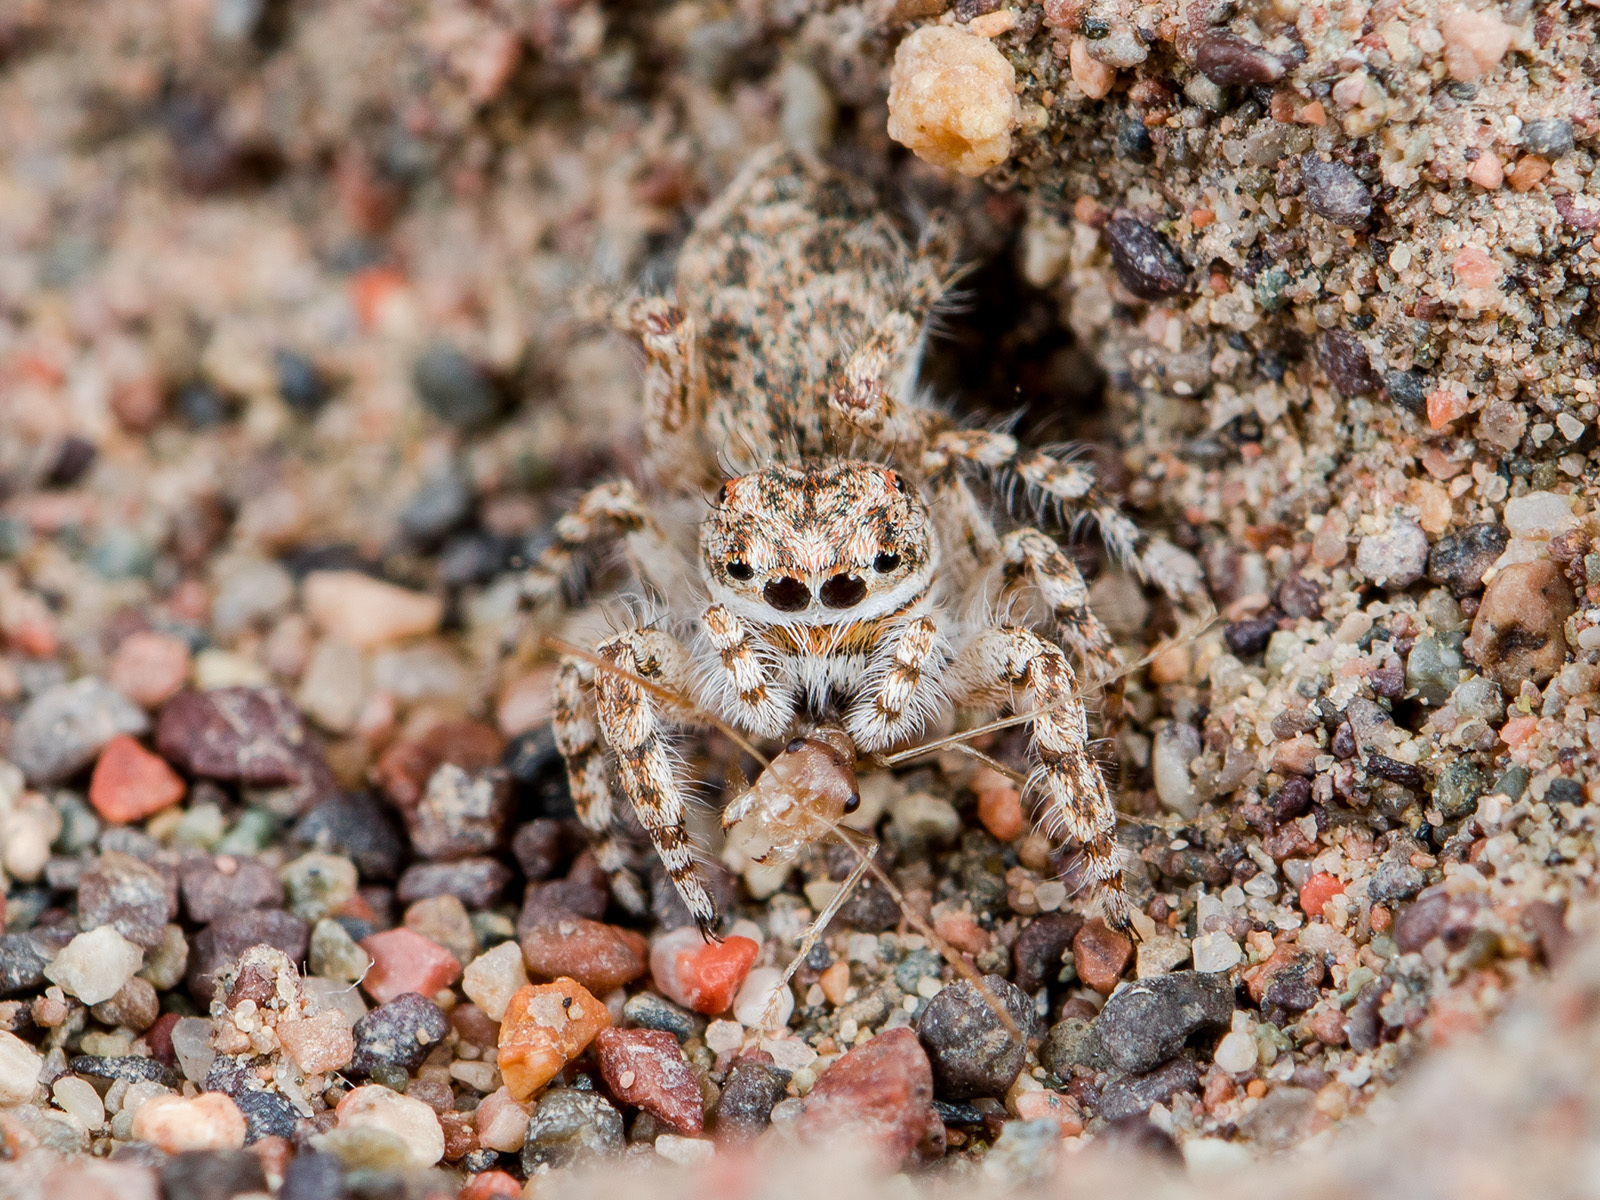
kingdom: Animalia
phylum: Arthropoda
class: Arachnida
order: Araneae
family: Salticidae
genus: Yllenus
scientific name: Yllenus uiguricus
